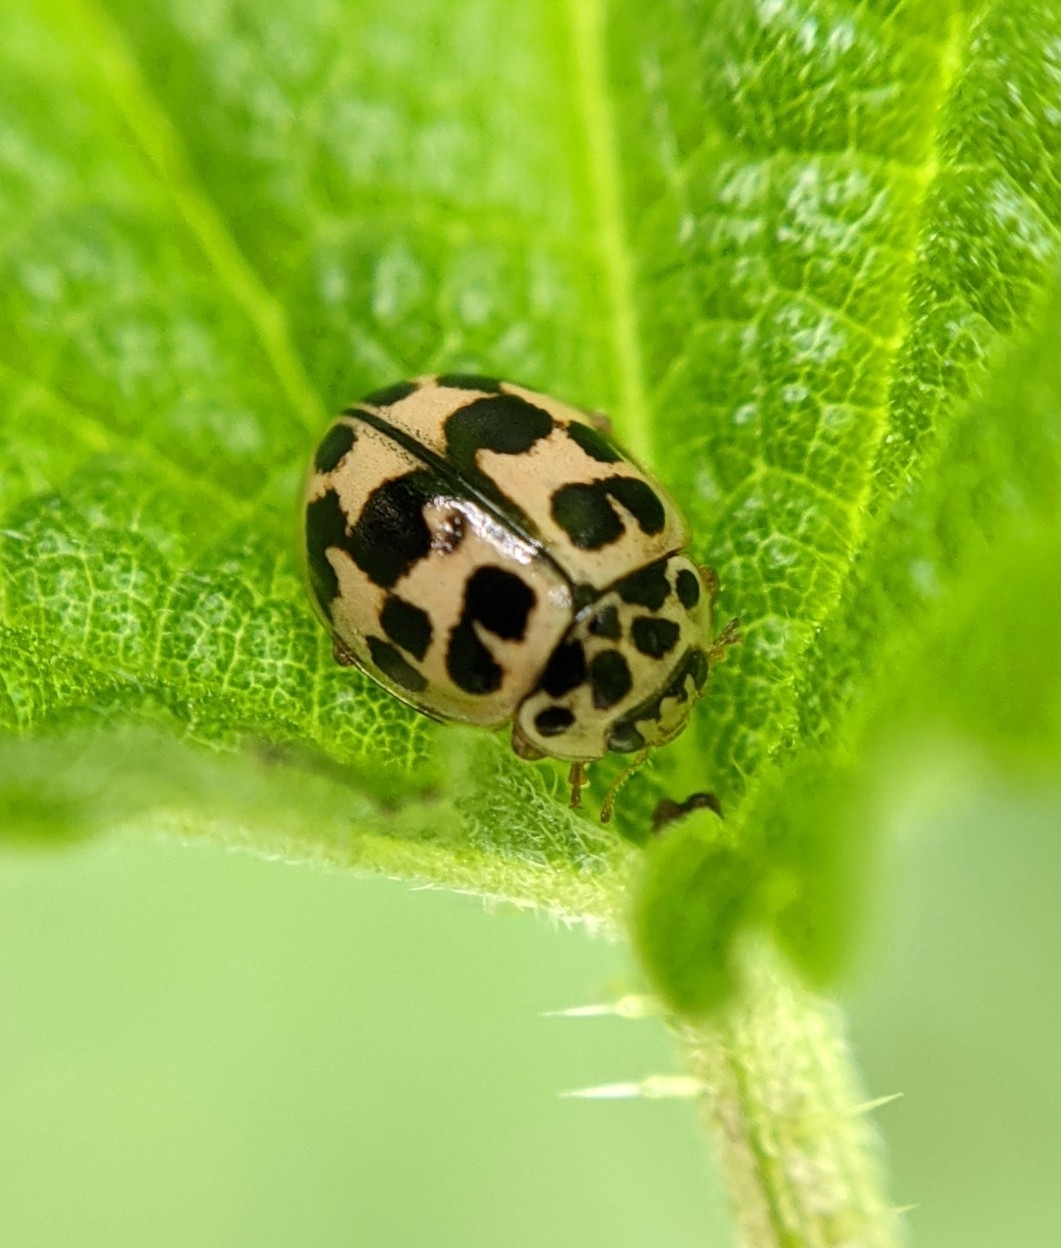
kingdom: Animalia
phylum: Arthropoda
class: Insecta
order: Coleoptera
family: Coccinellidae
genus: Oenopia
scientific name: Oenopia conglobata
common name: Ladybird beetle
